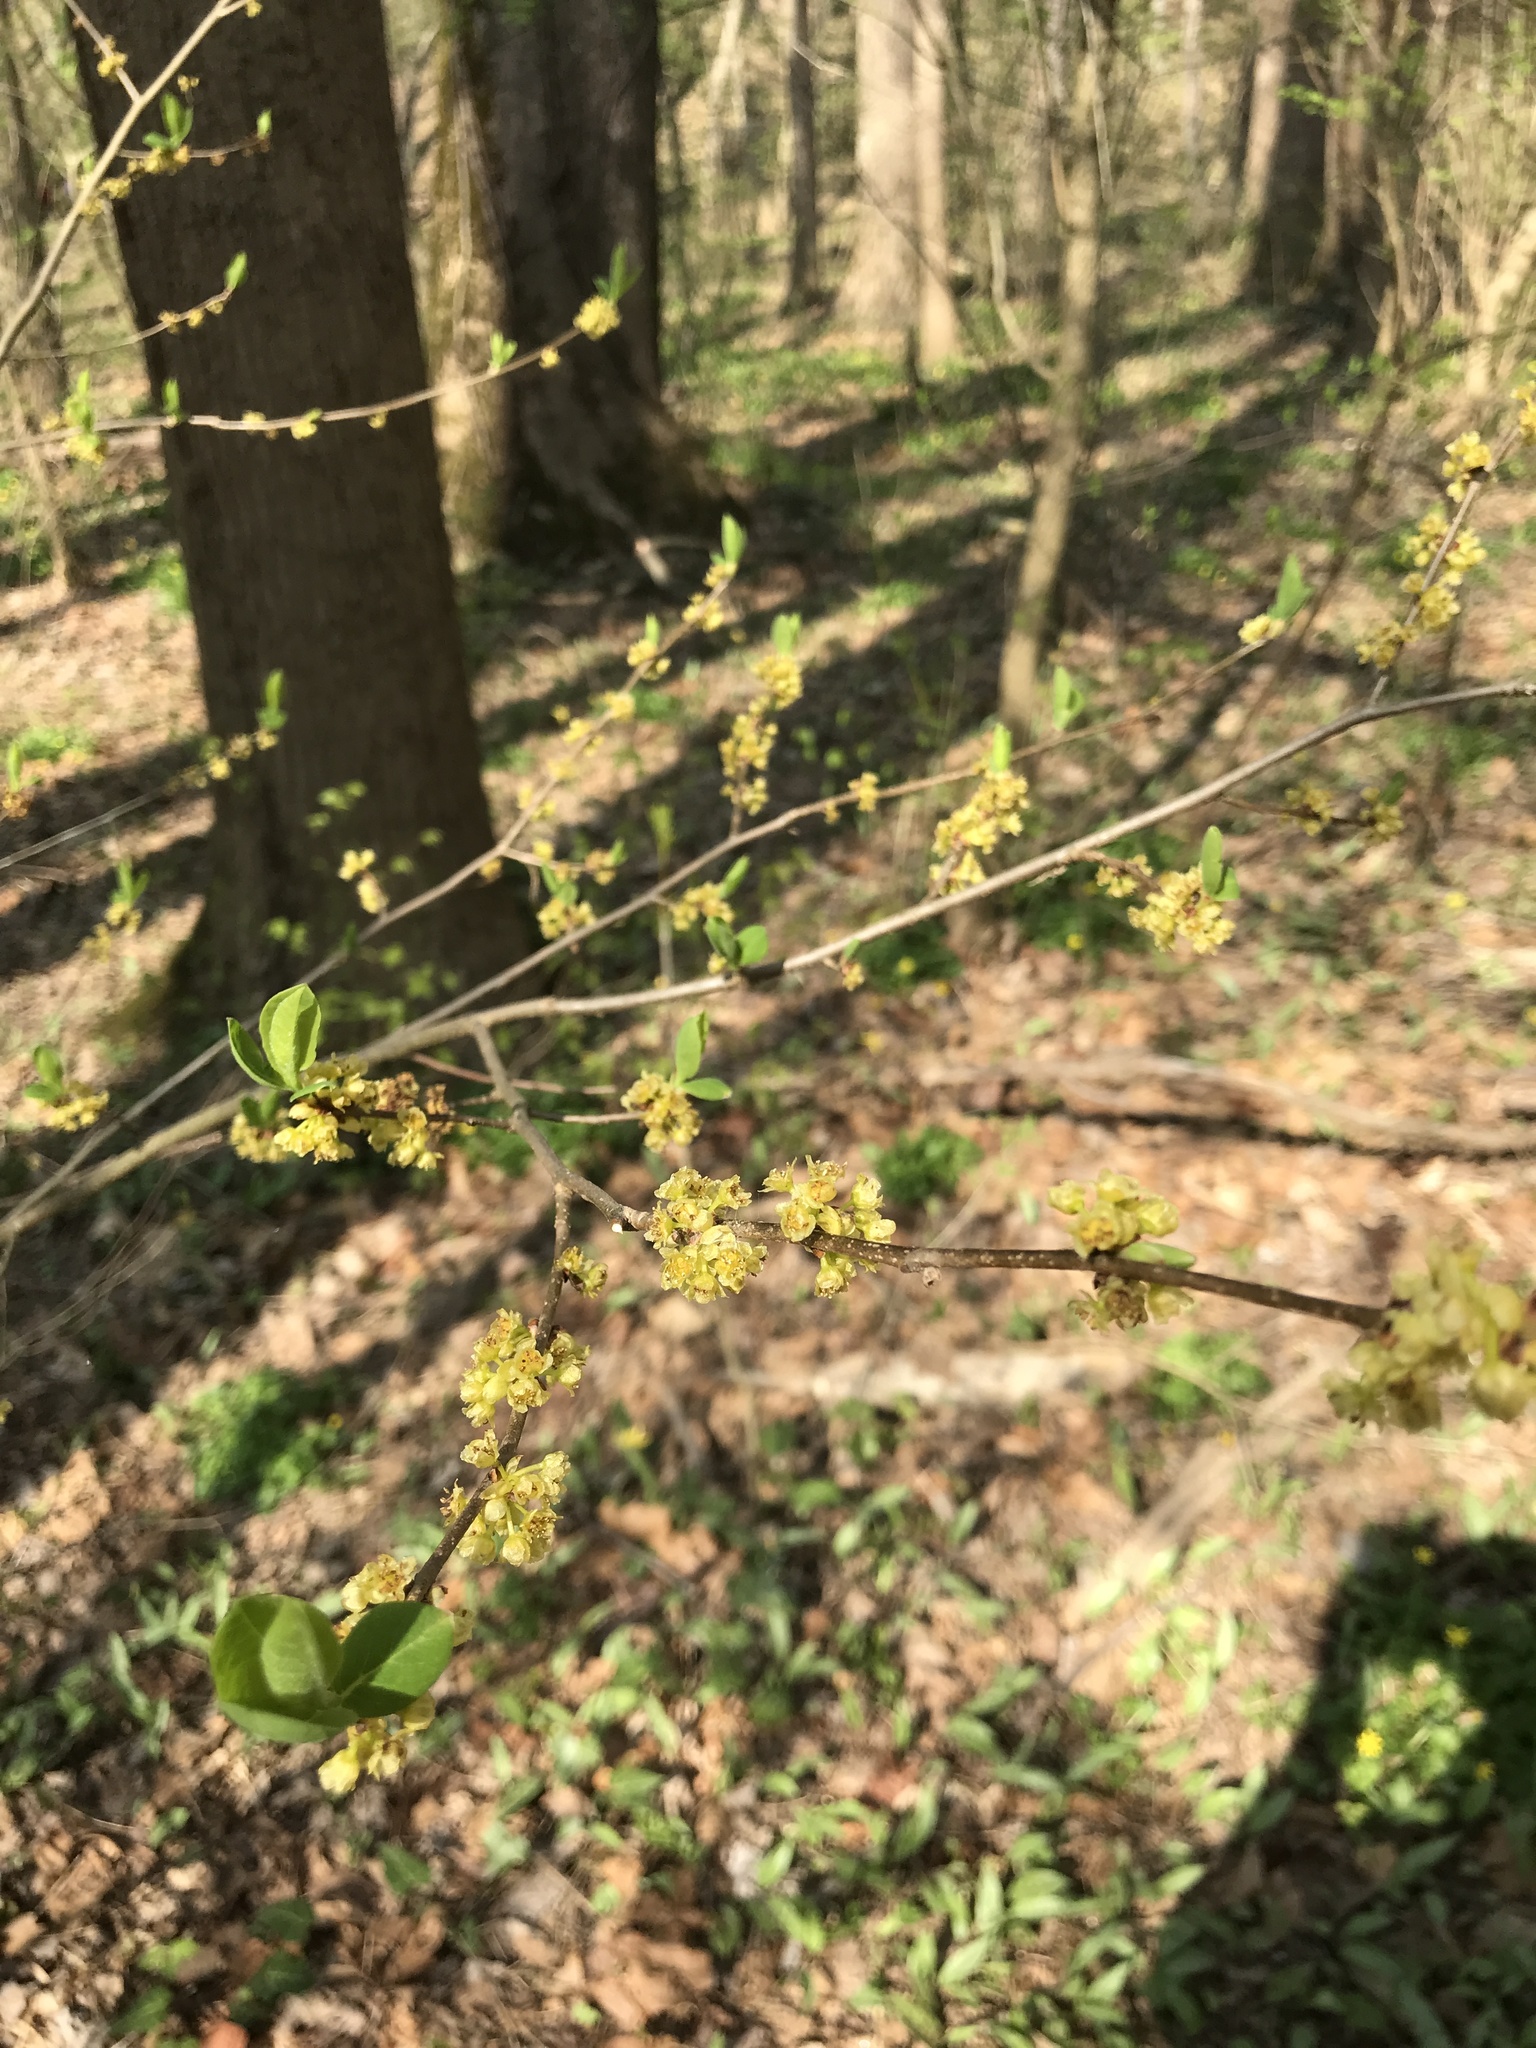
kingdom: Plantae
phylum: Tracheophyta
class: Magnoliopsida
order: Laurales
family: Lauraceae
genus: Lindera
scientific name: Lindera benzoin
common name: Spicebush
